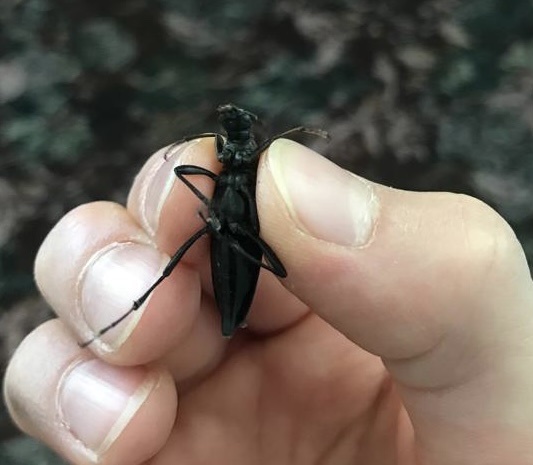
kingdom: Animalia
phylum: Arthropoda
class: Insecta
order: Coleoptera
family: Cerambycidae
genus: Leptura
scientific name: Leptura thoracica
